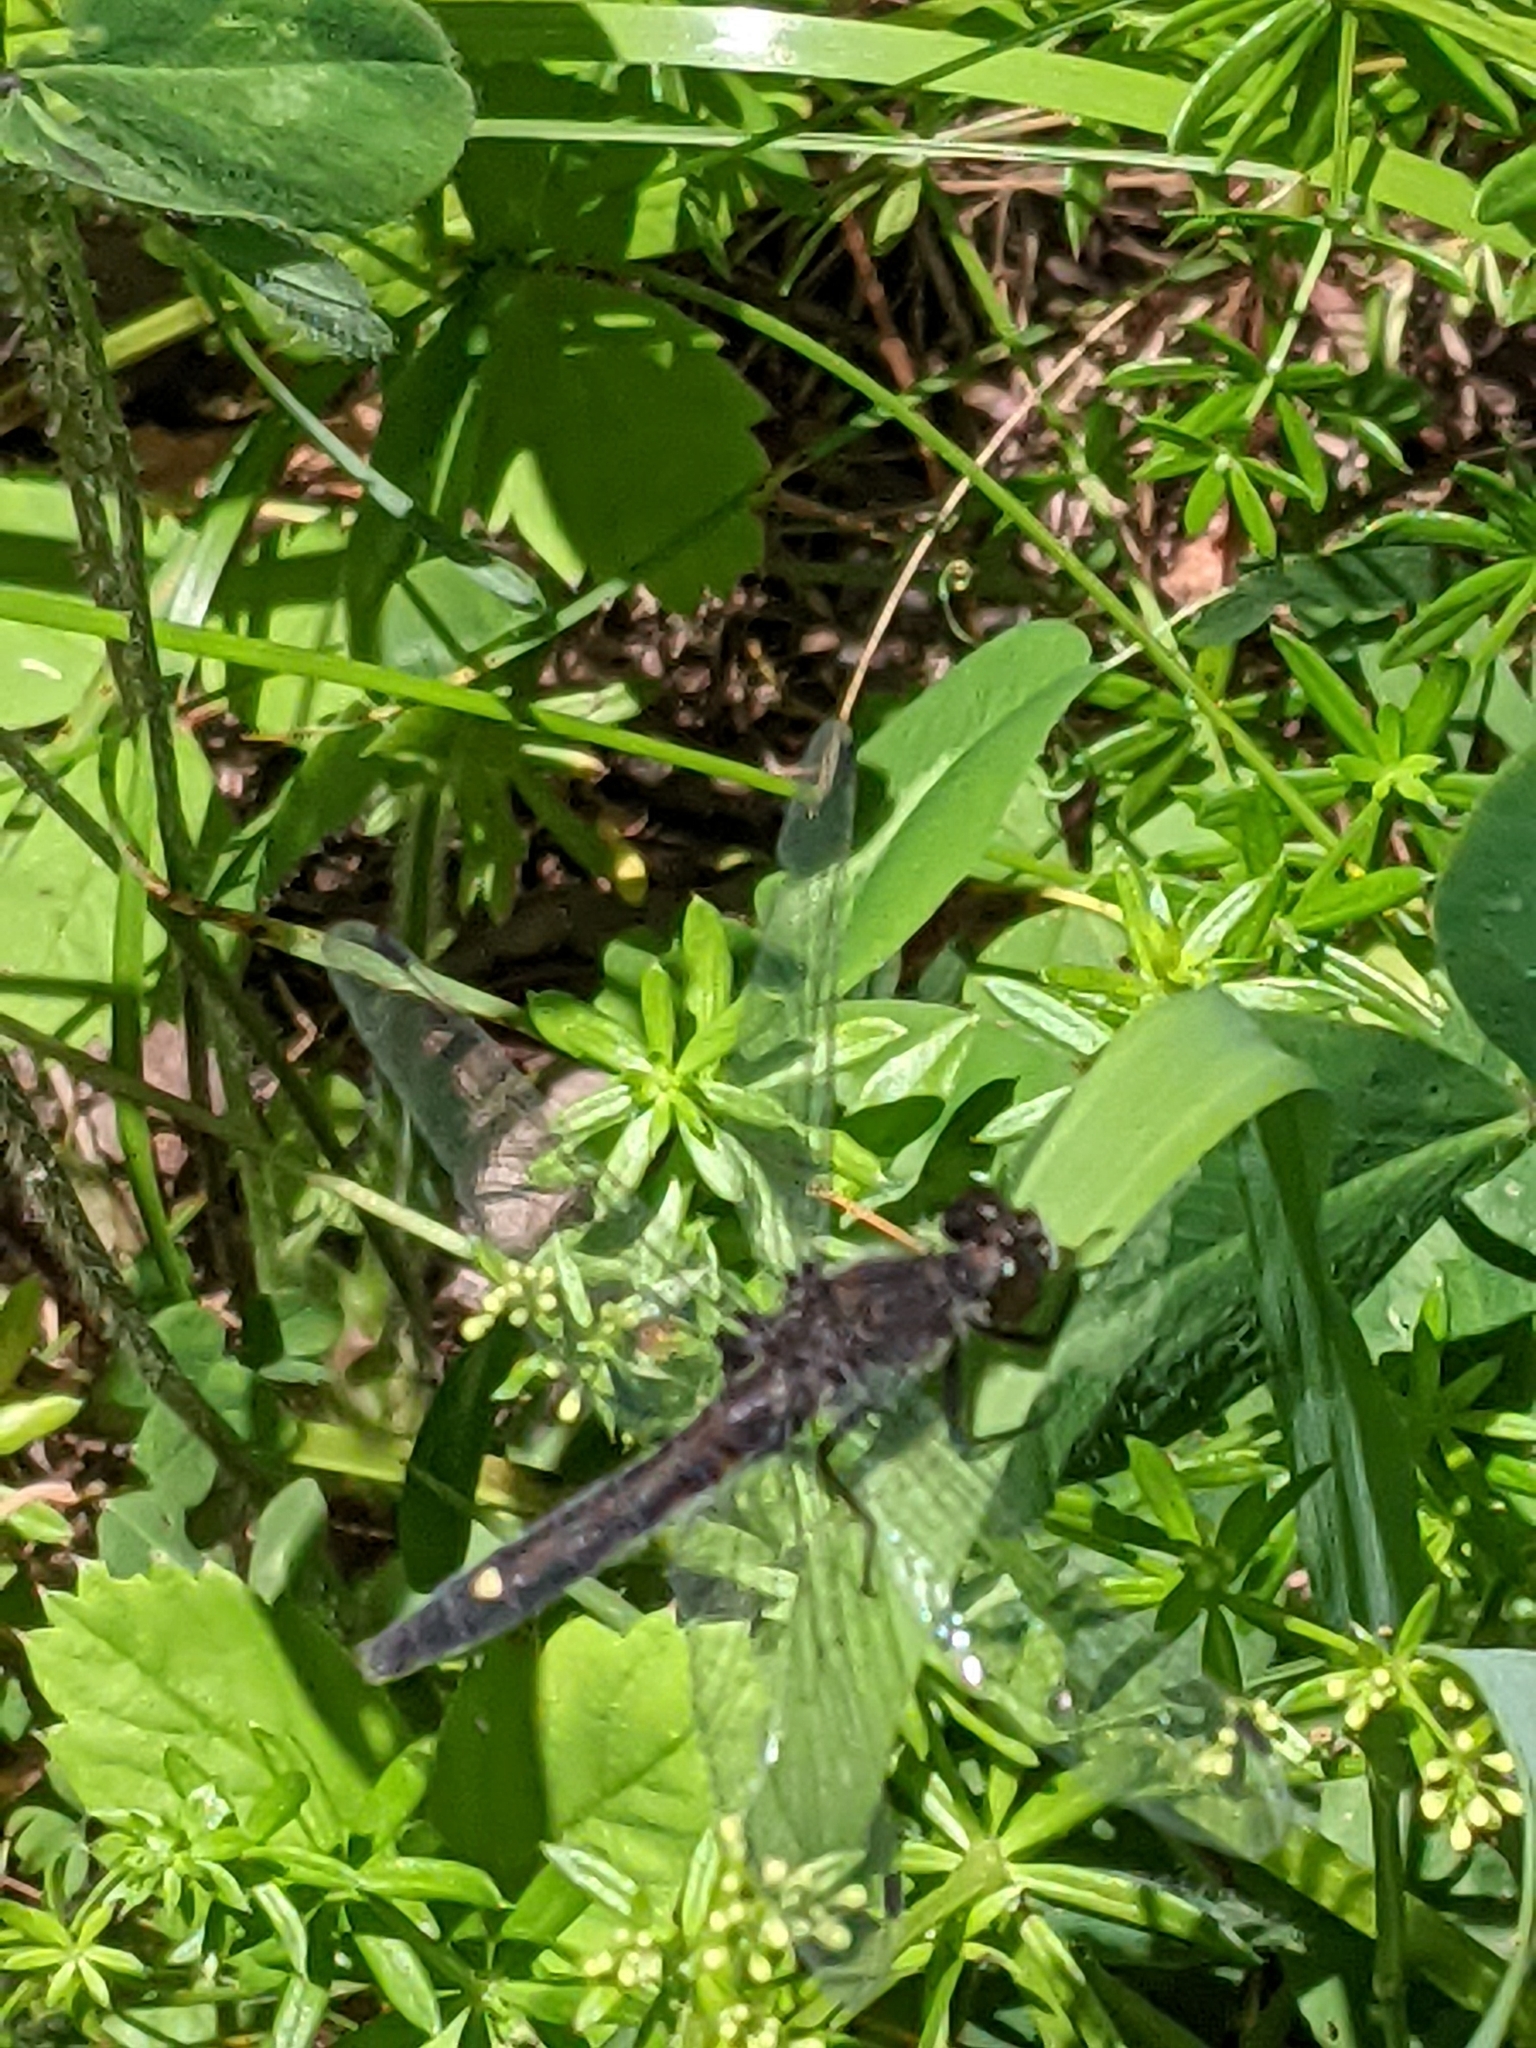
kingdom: Animalia
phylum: Arthropoda
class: Insecta
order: Odonata
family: Libellulidae
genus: Leucorrhinia
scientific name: Leucorrhinia intacta
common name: Dot-tailed whiteface
